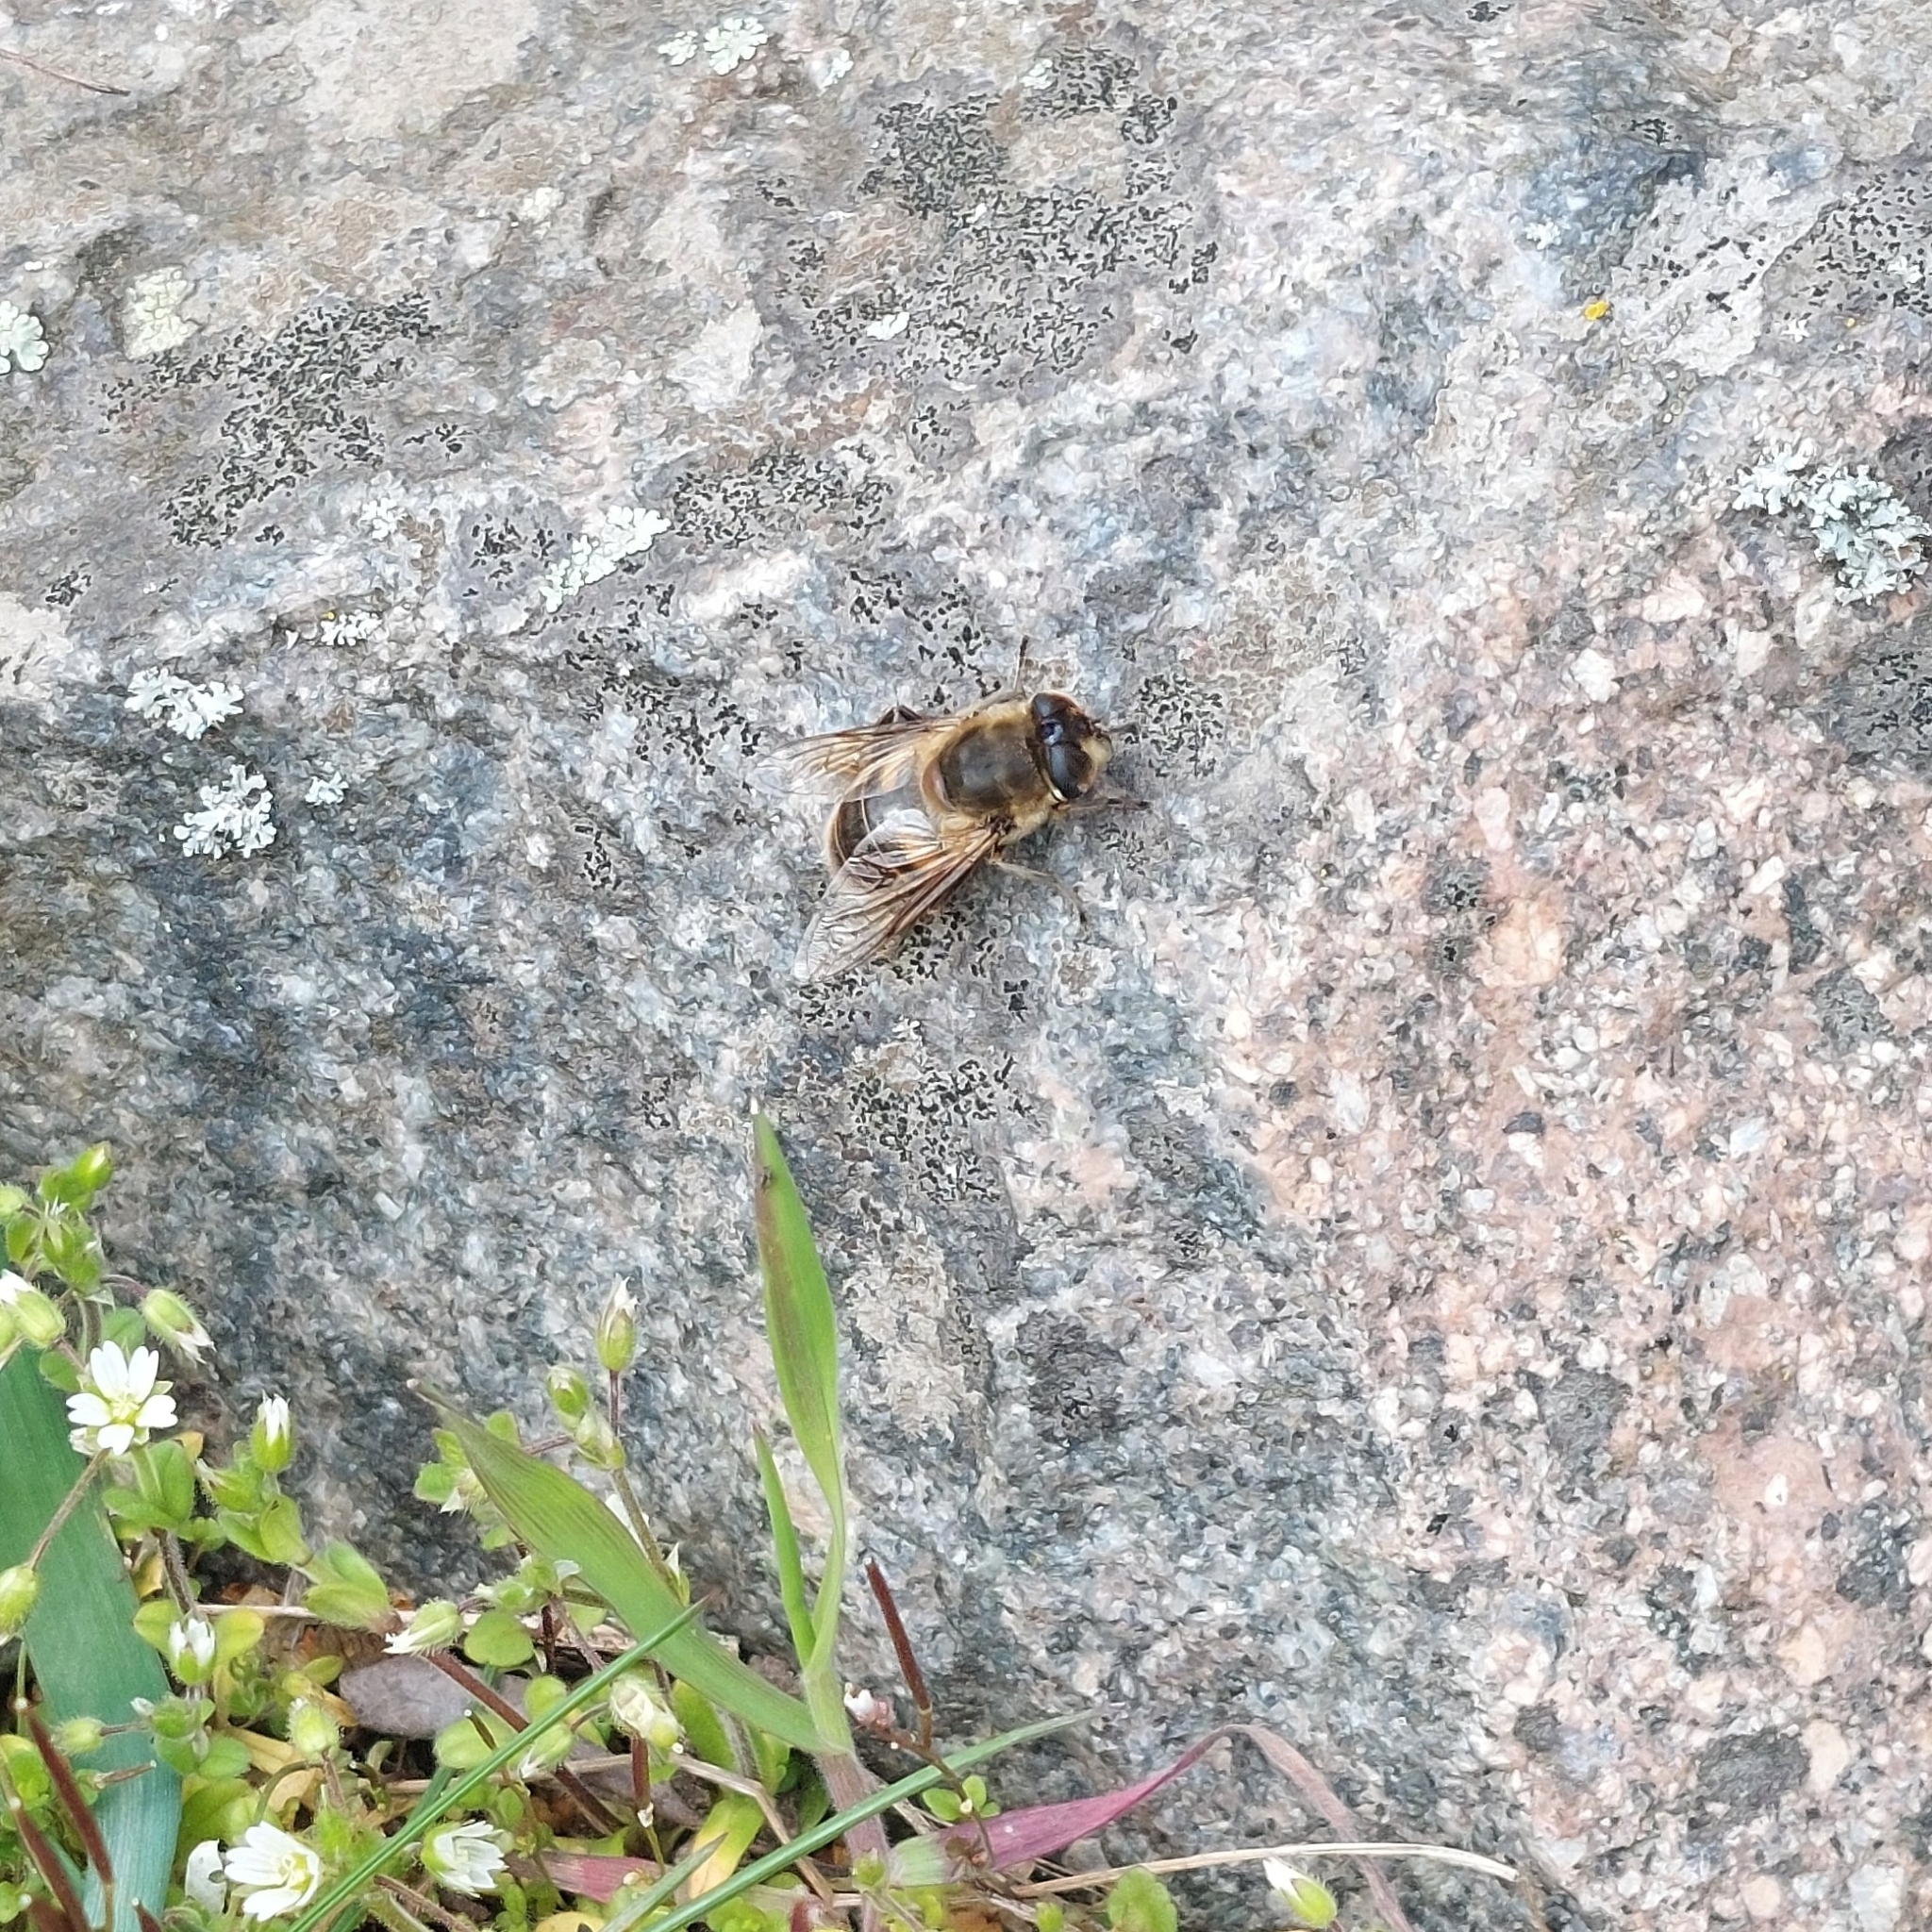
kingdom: Animalia
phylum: Arthropoda
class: Insecta
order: Diptera
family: Syrphidae
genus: Eristalis
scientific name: Eristalis tenax
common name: Drone fly
